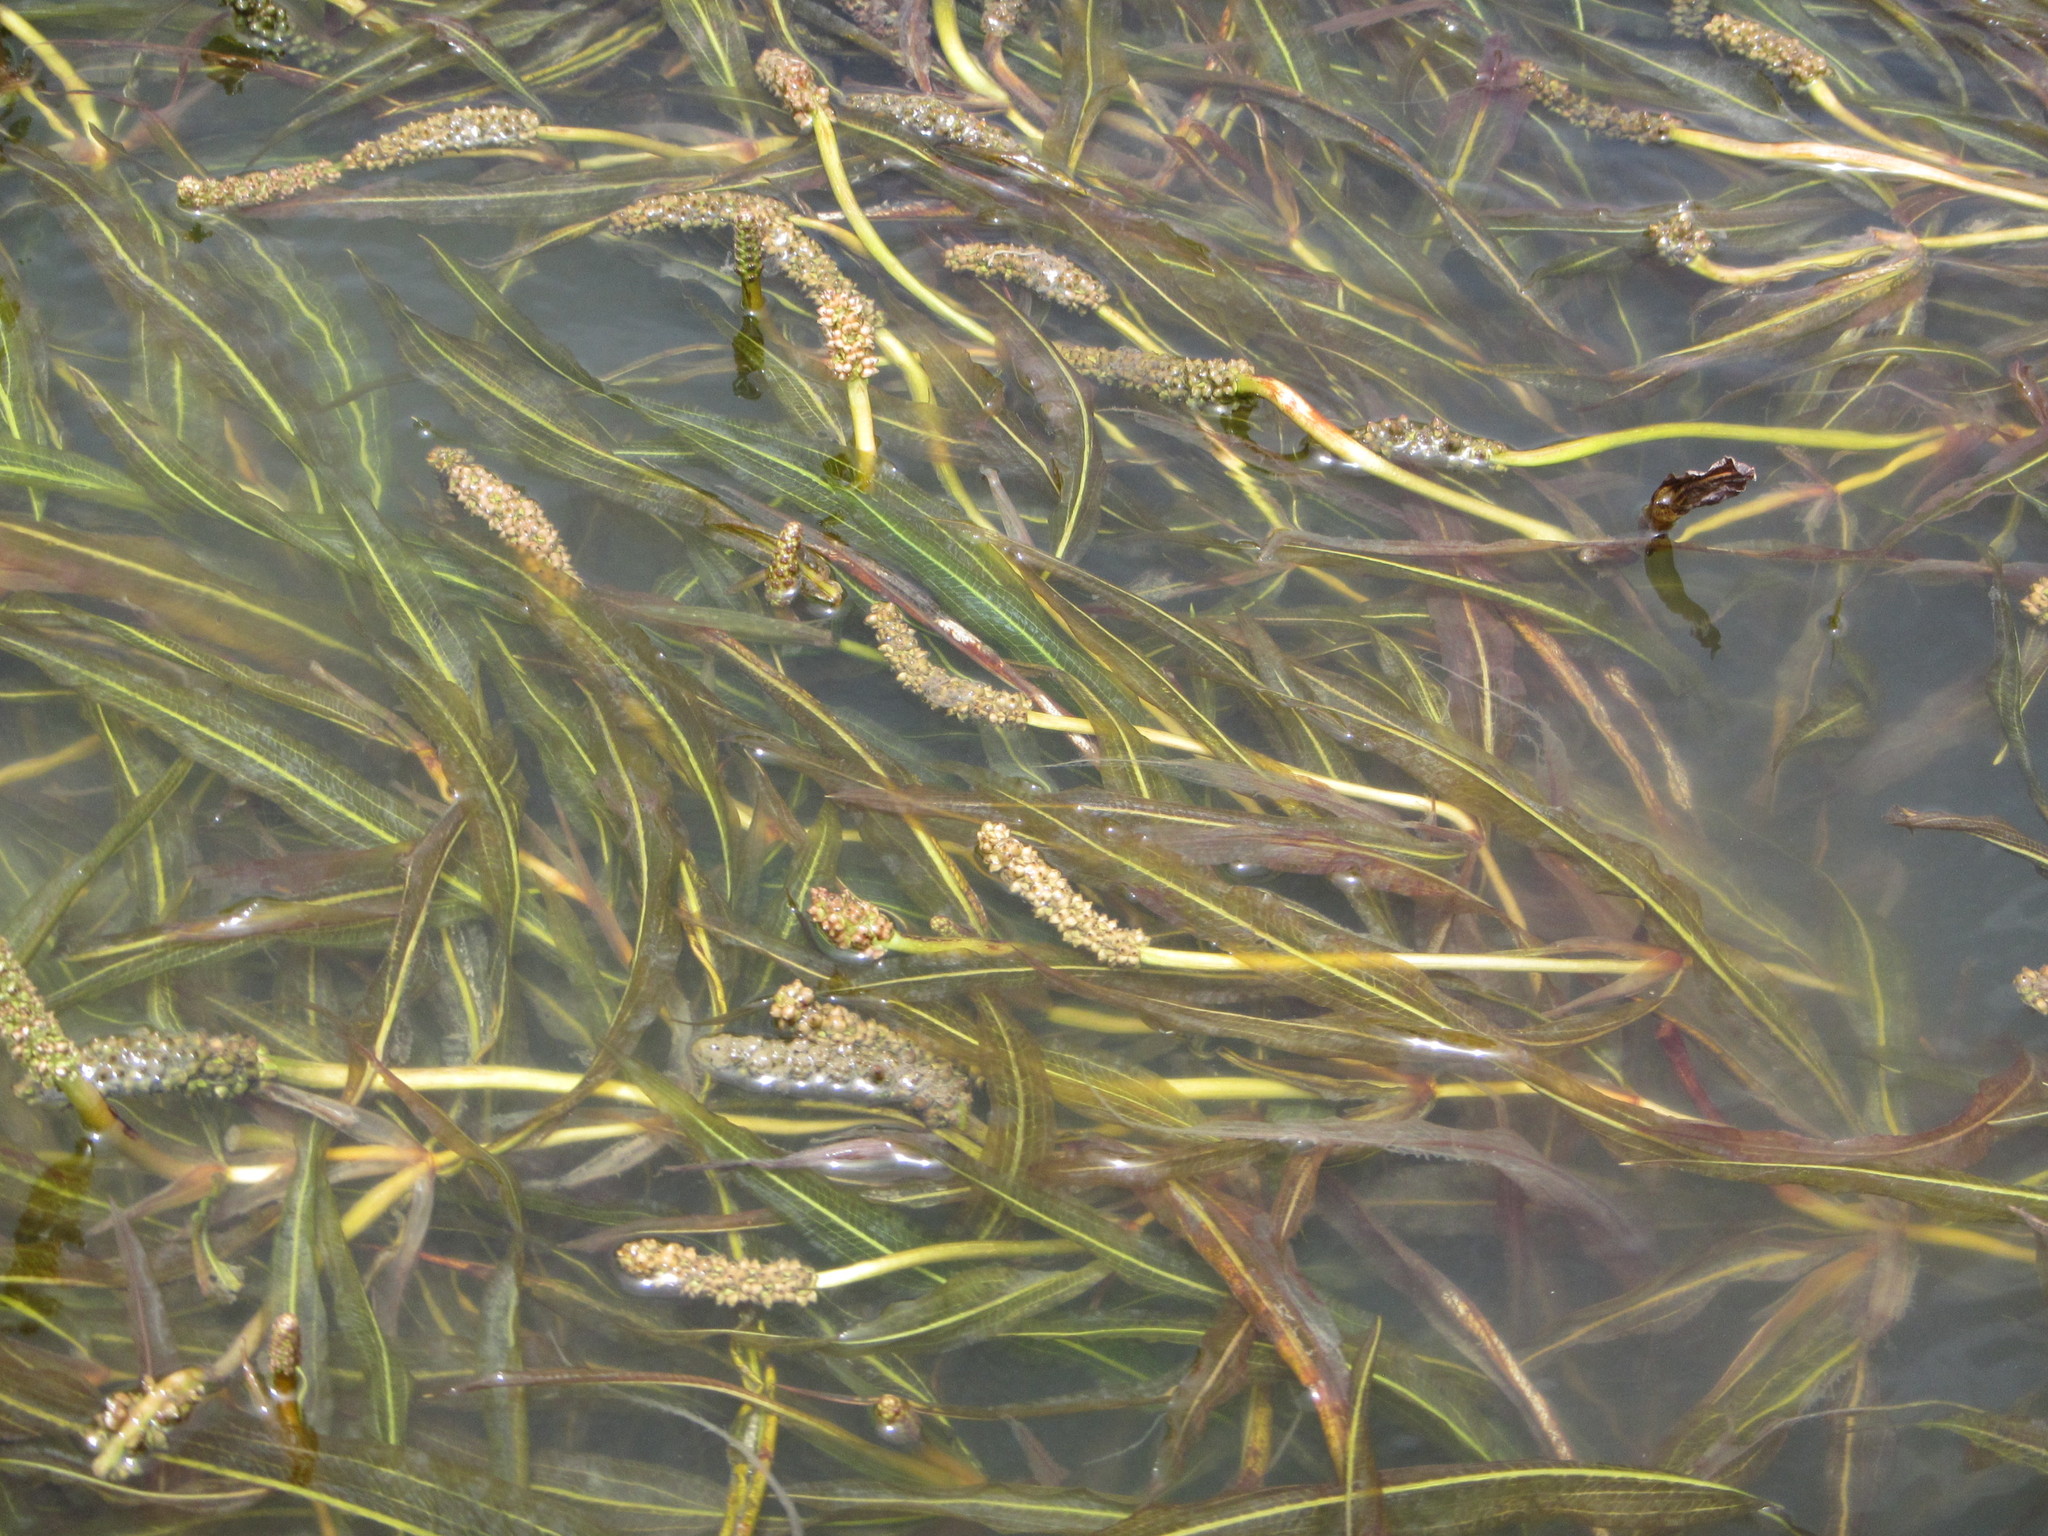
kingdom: Plantae
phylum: Tracheophyta
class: Liliopsida
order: Alismatales
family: Potamogetonaceae
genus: Potamogeton
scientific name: Potamogeton schweinfurthii
